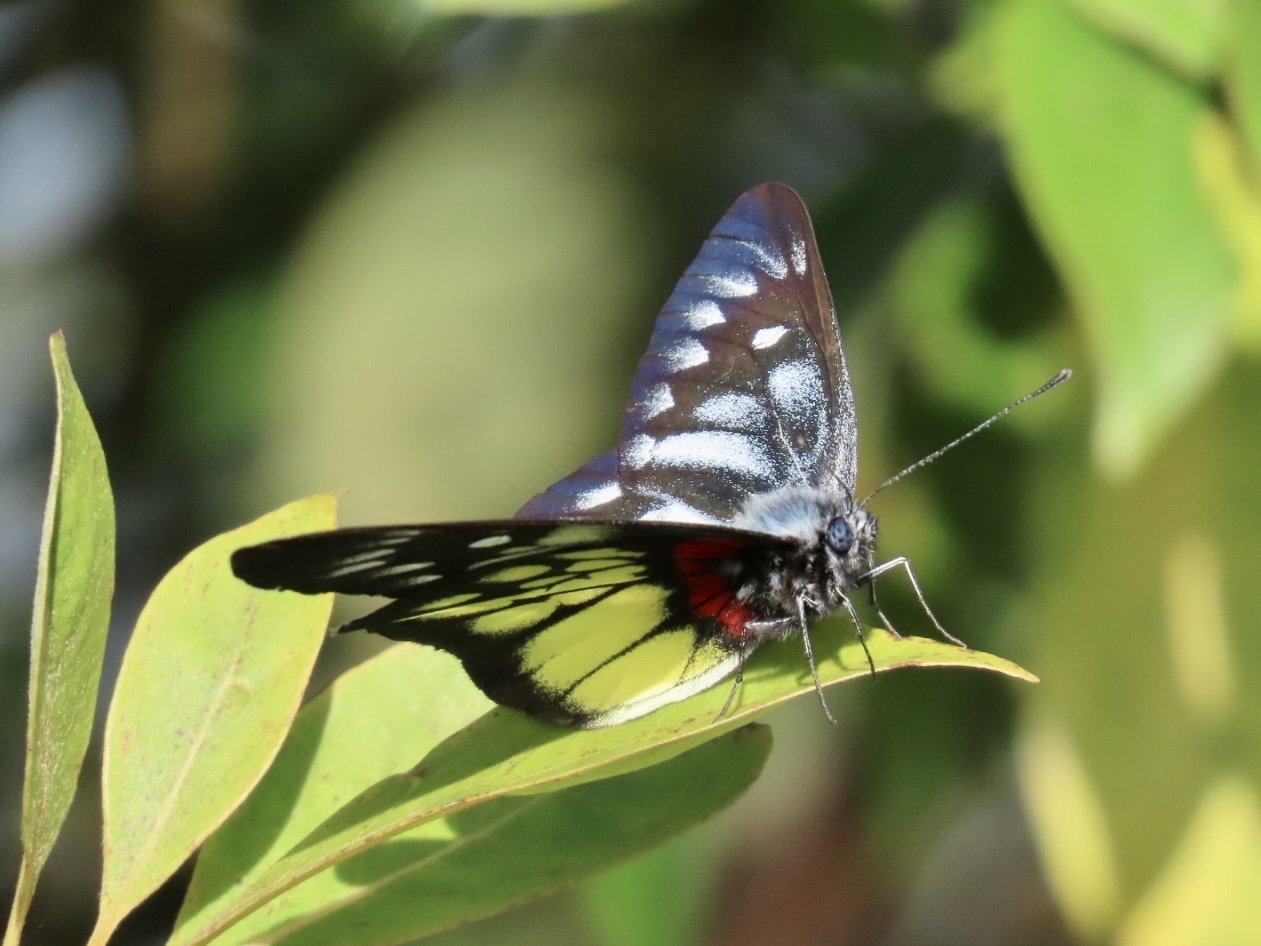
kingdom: Animalia
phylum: Arthropoda
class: Insecta
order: Lepidoptera
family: Pieridae
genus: Delias
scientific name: Delias pasithoe
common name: Red-base jezebel
